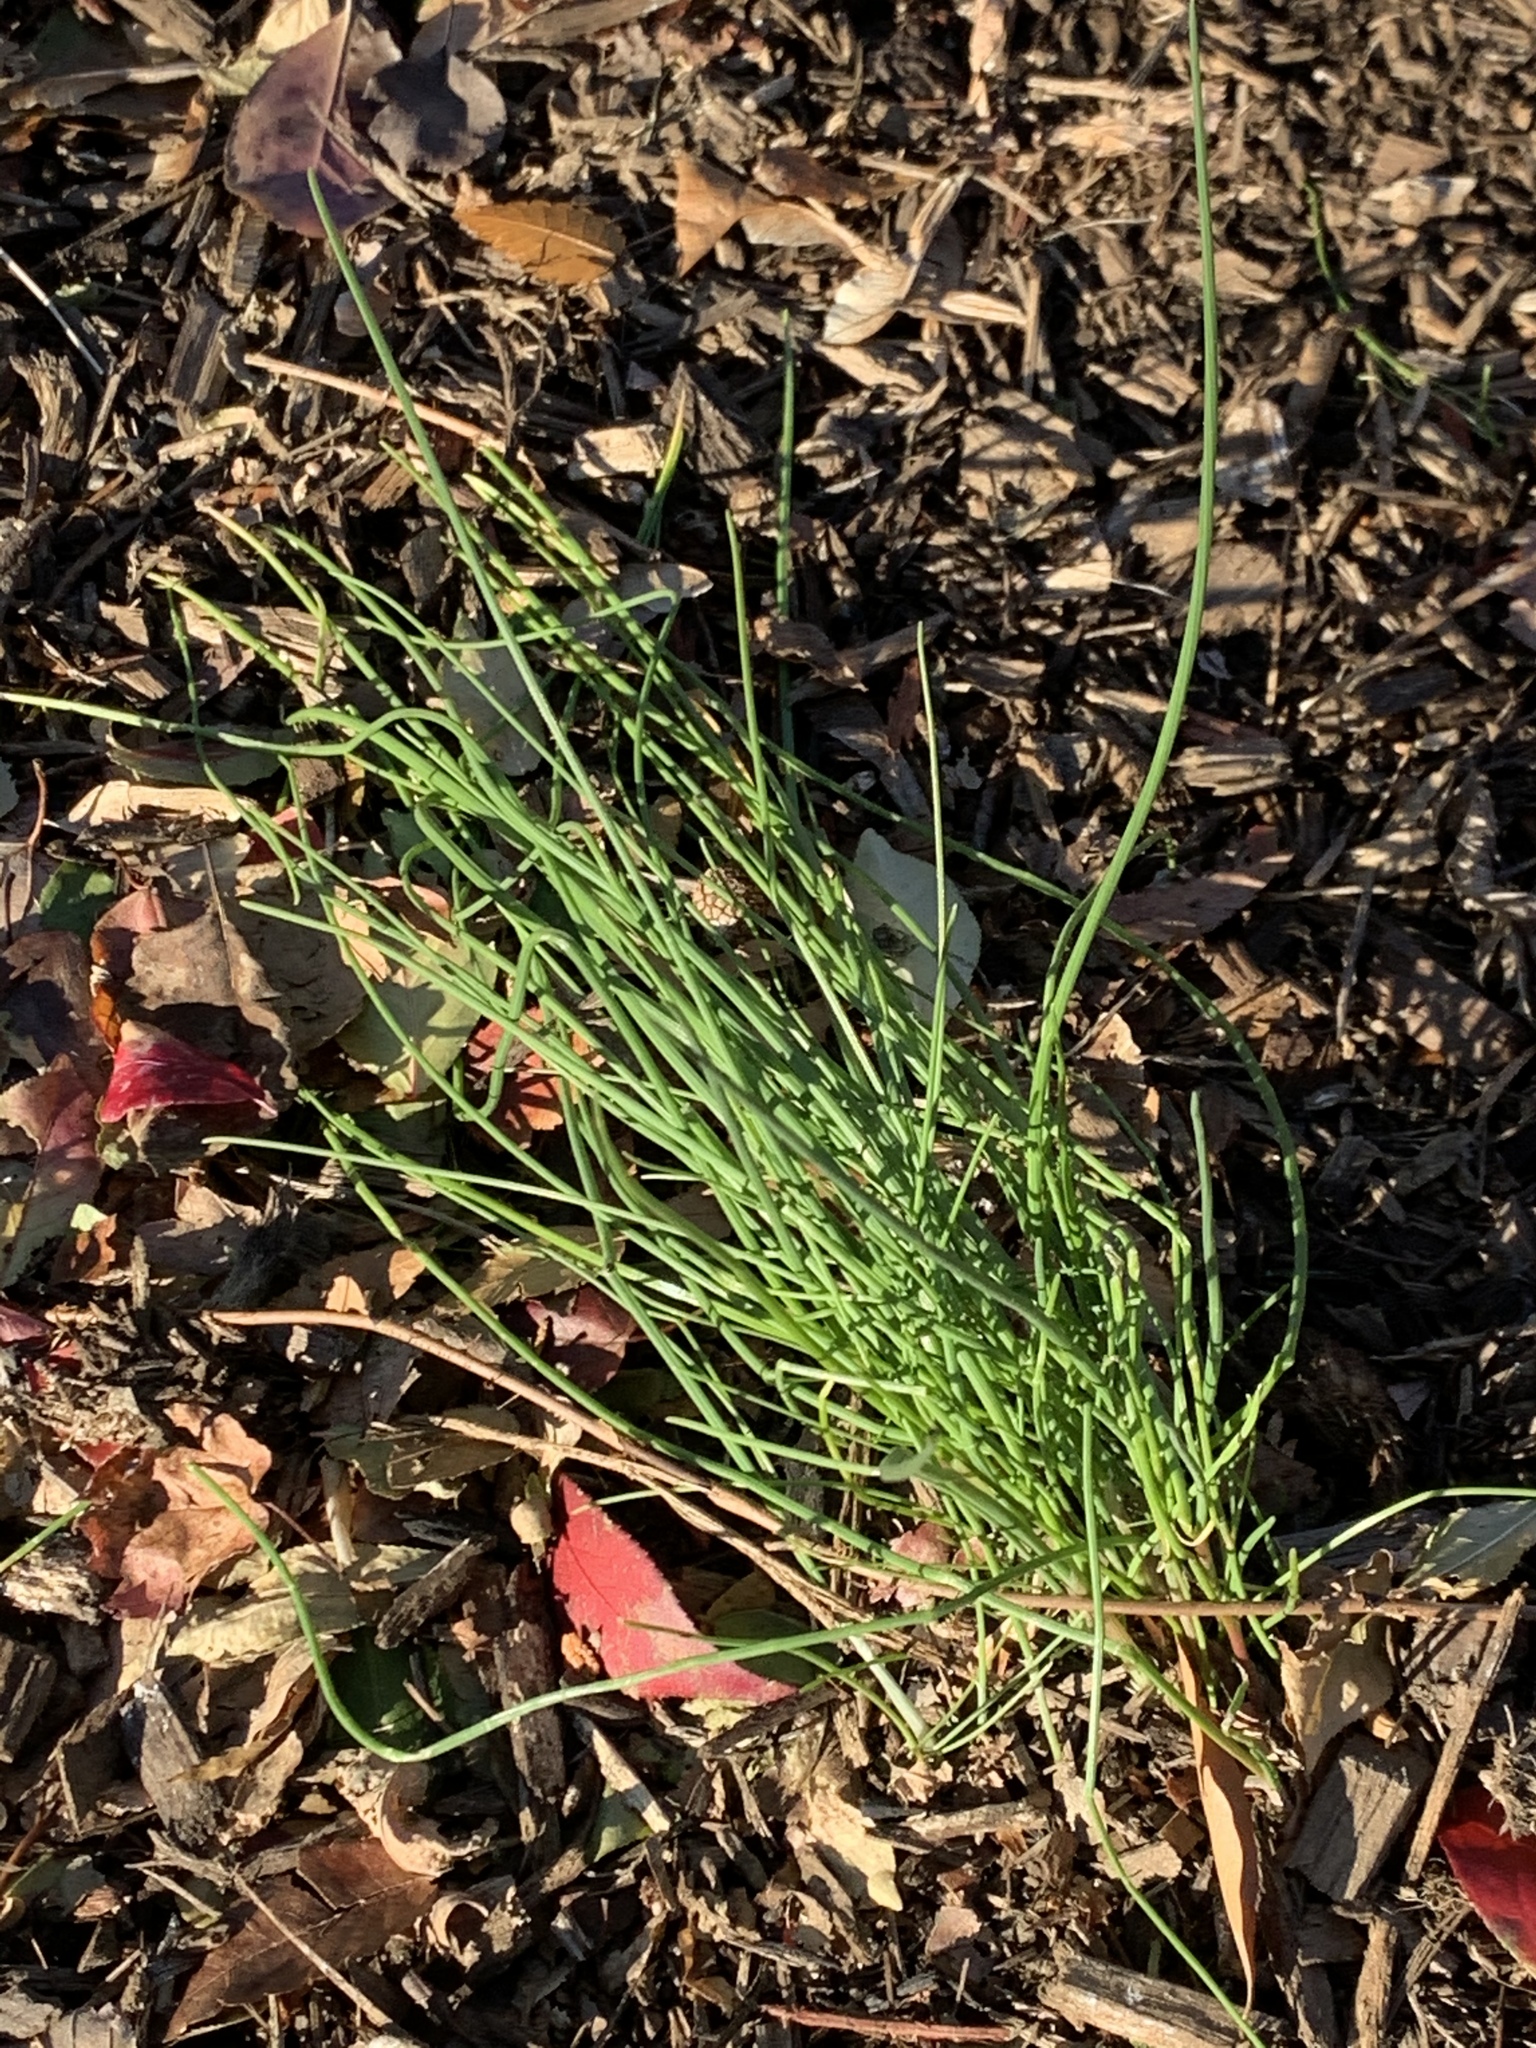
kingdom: Plantae
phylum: Tracheophyta
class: Liliopsida
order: Asparagales
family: Amaryllidaceae
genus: Allium
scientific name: Allium vineale
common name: Crow garlic
